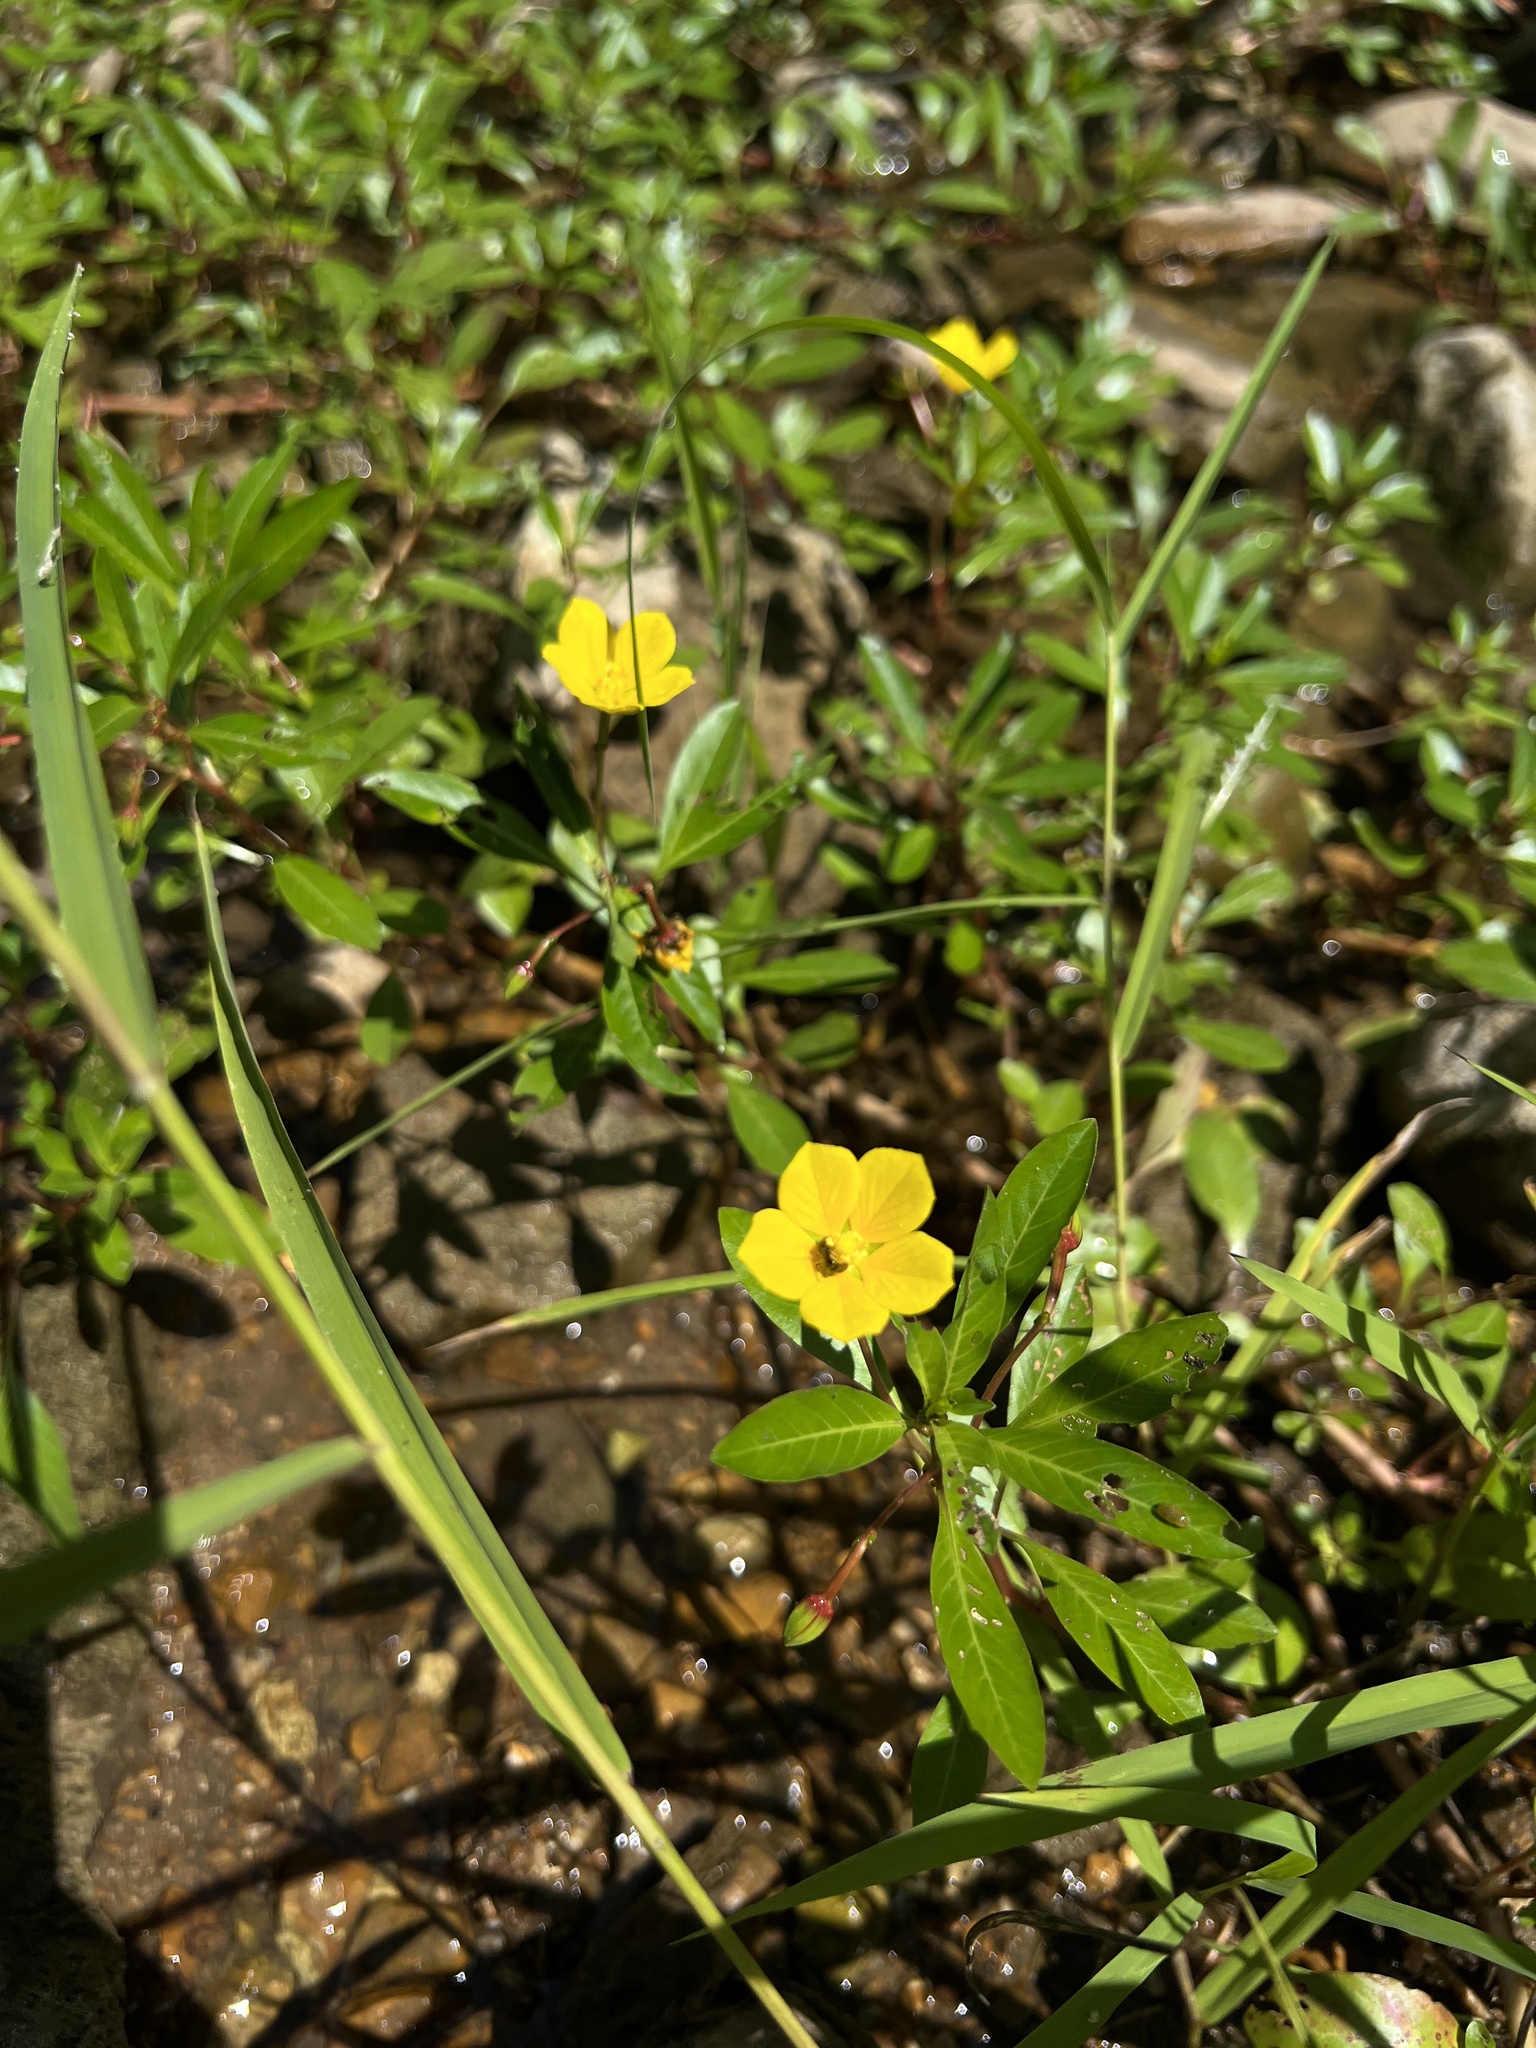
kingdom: Plantae
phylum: Tracheophyta
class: Magnoliopsida
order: Myrtales
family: Onagraceae
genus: Ludwigia
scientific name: Ludwigia peploides
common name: Floating primrose-willow
